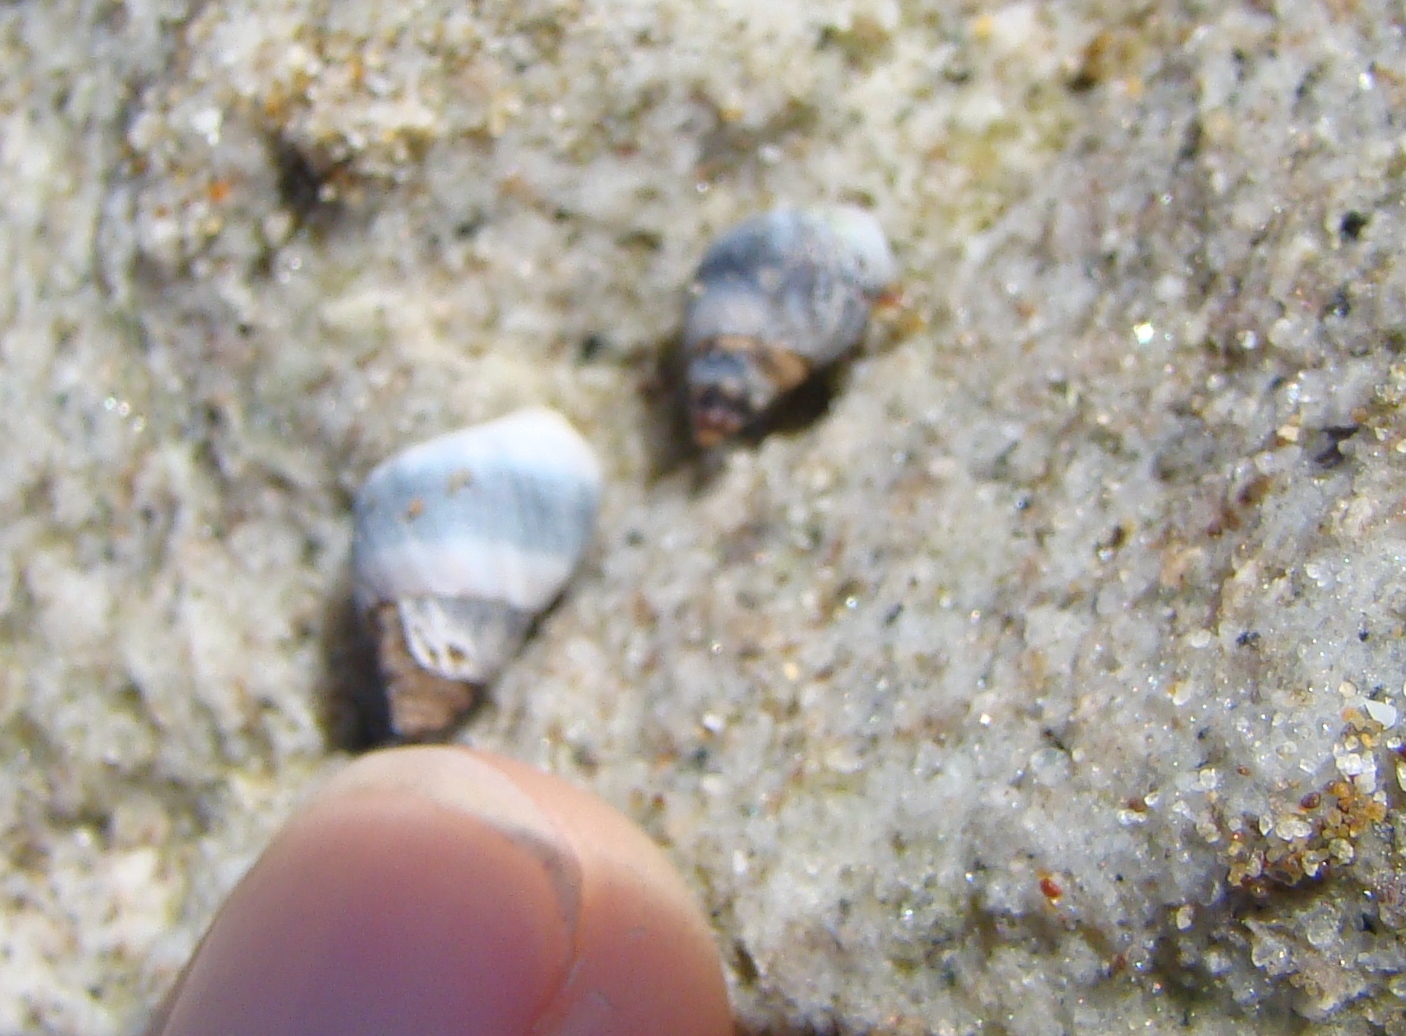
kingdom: Animalia
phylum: Mollusca
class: Gastropoda
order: Littorinimorpha
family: Littorinidae
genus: Austrolittorina
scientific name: Austrolittorina antipodum
